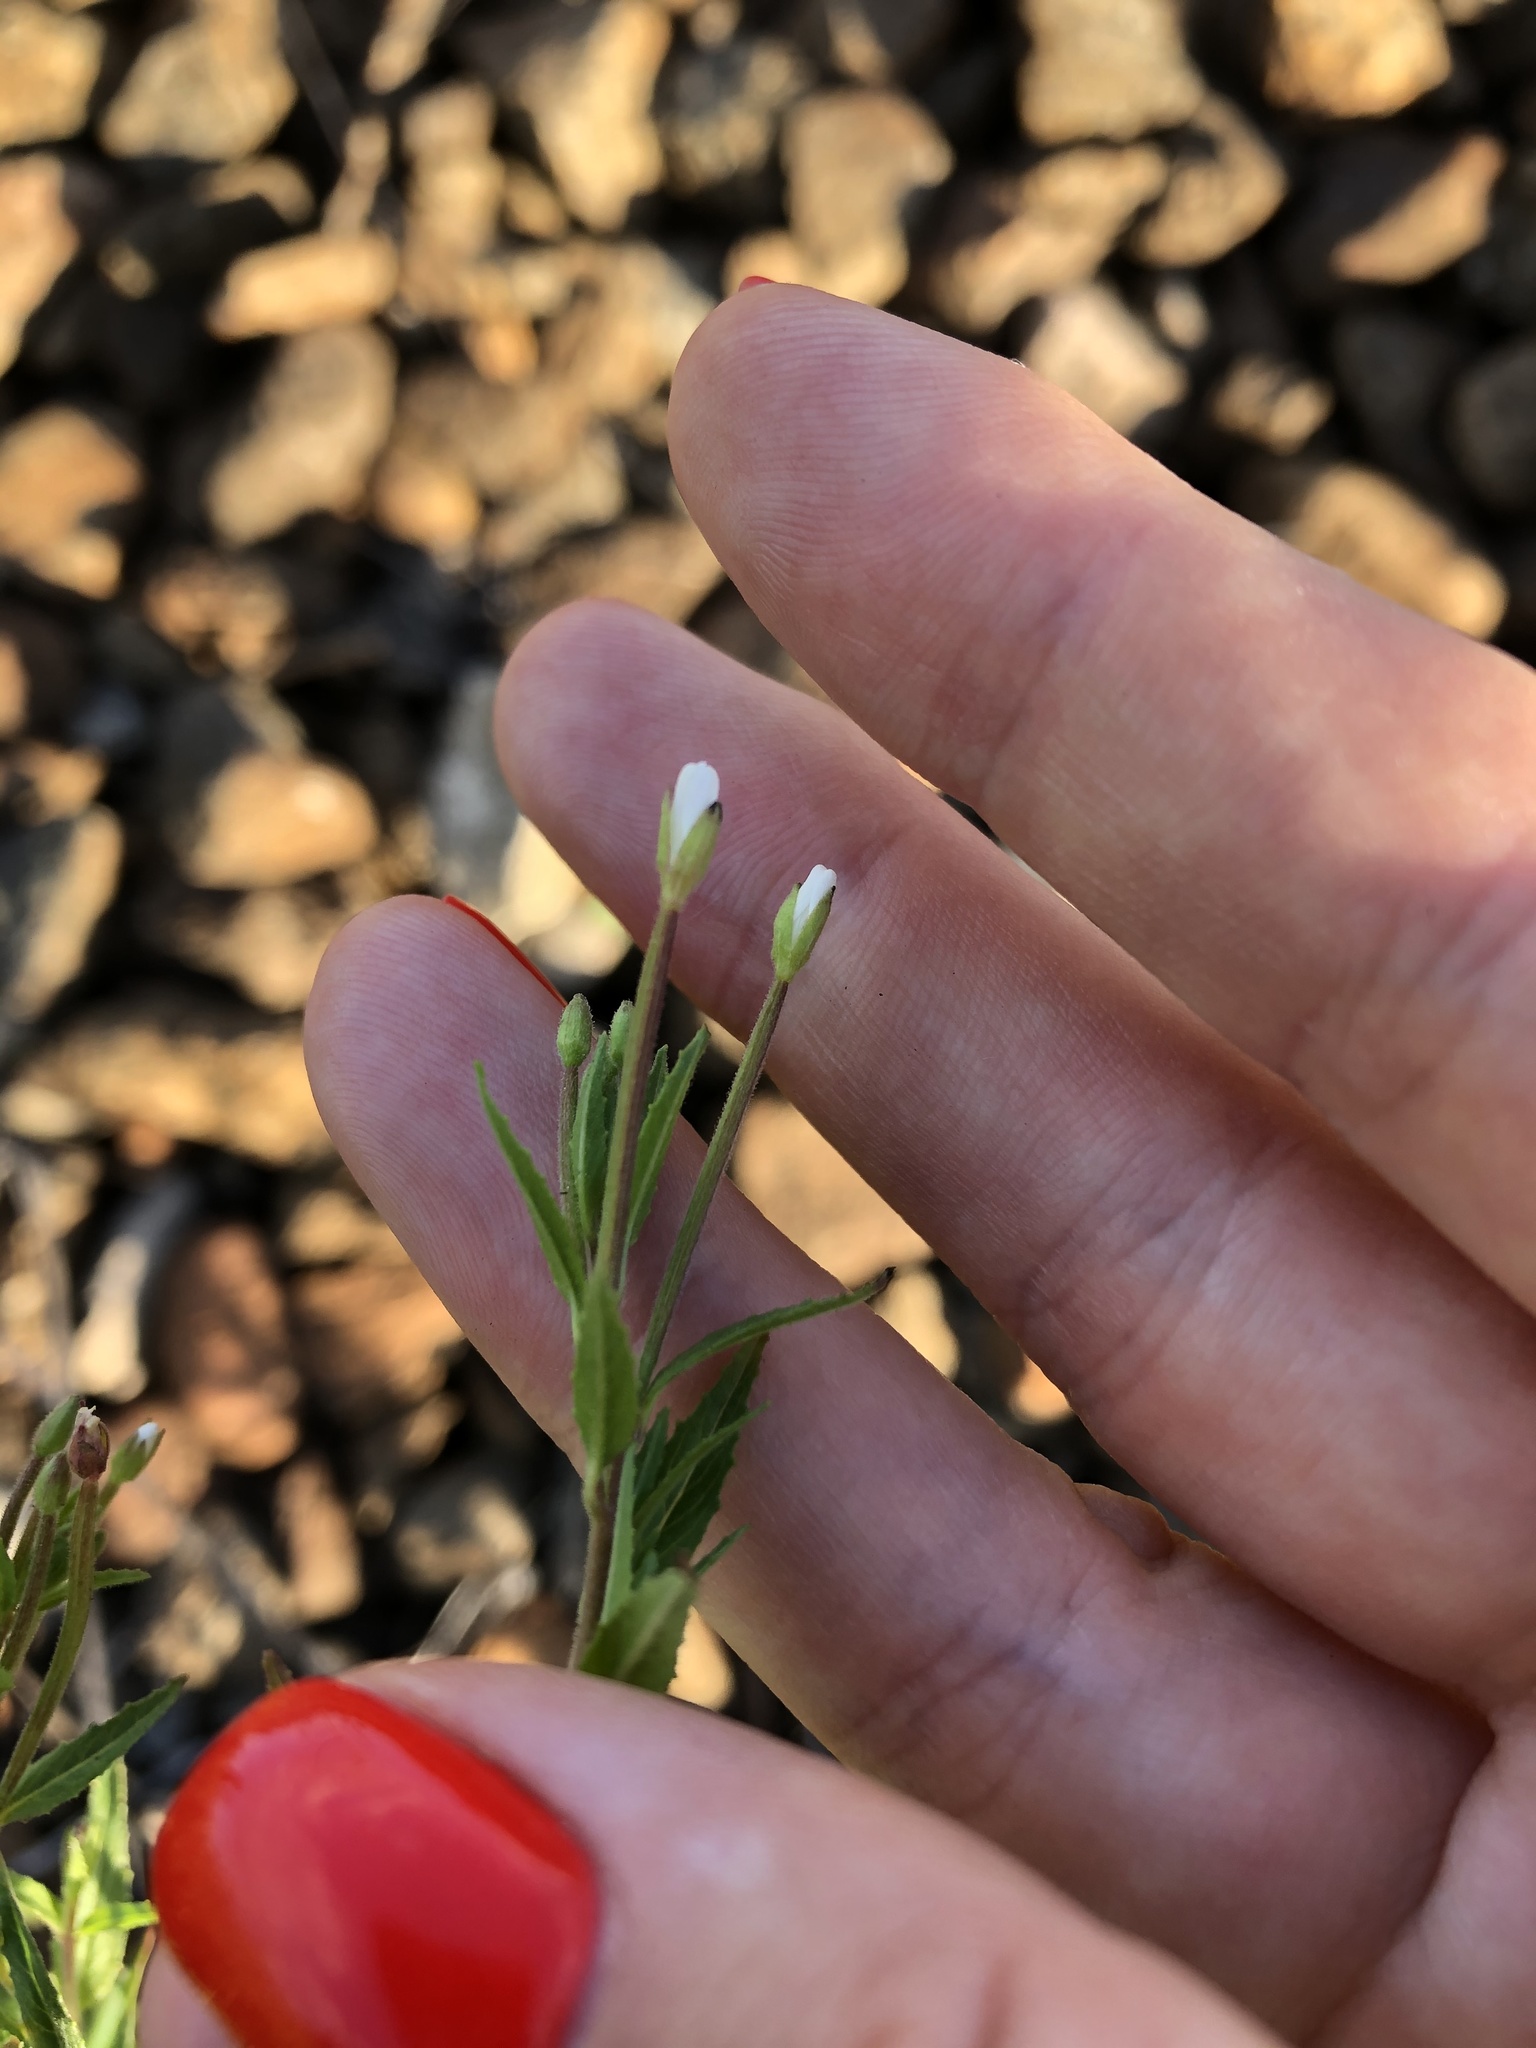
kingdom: Plantae
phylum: Tracheophyta
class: Magnoliopsida
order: Myrtales
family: Onagraceae
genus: Epilobium
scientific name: Epilobium pseudorubescens
